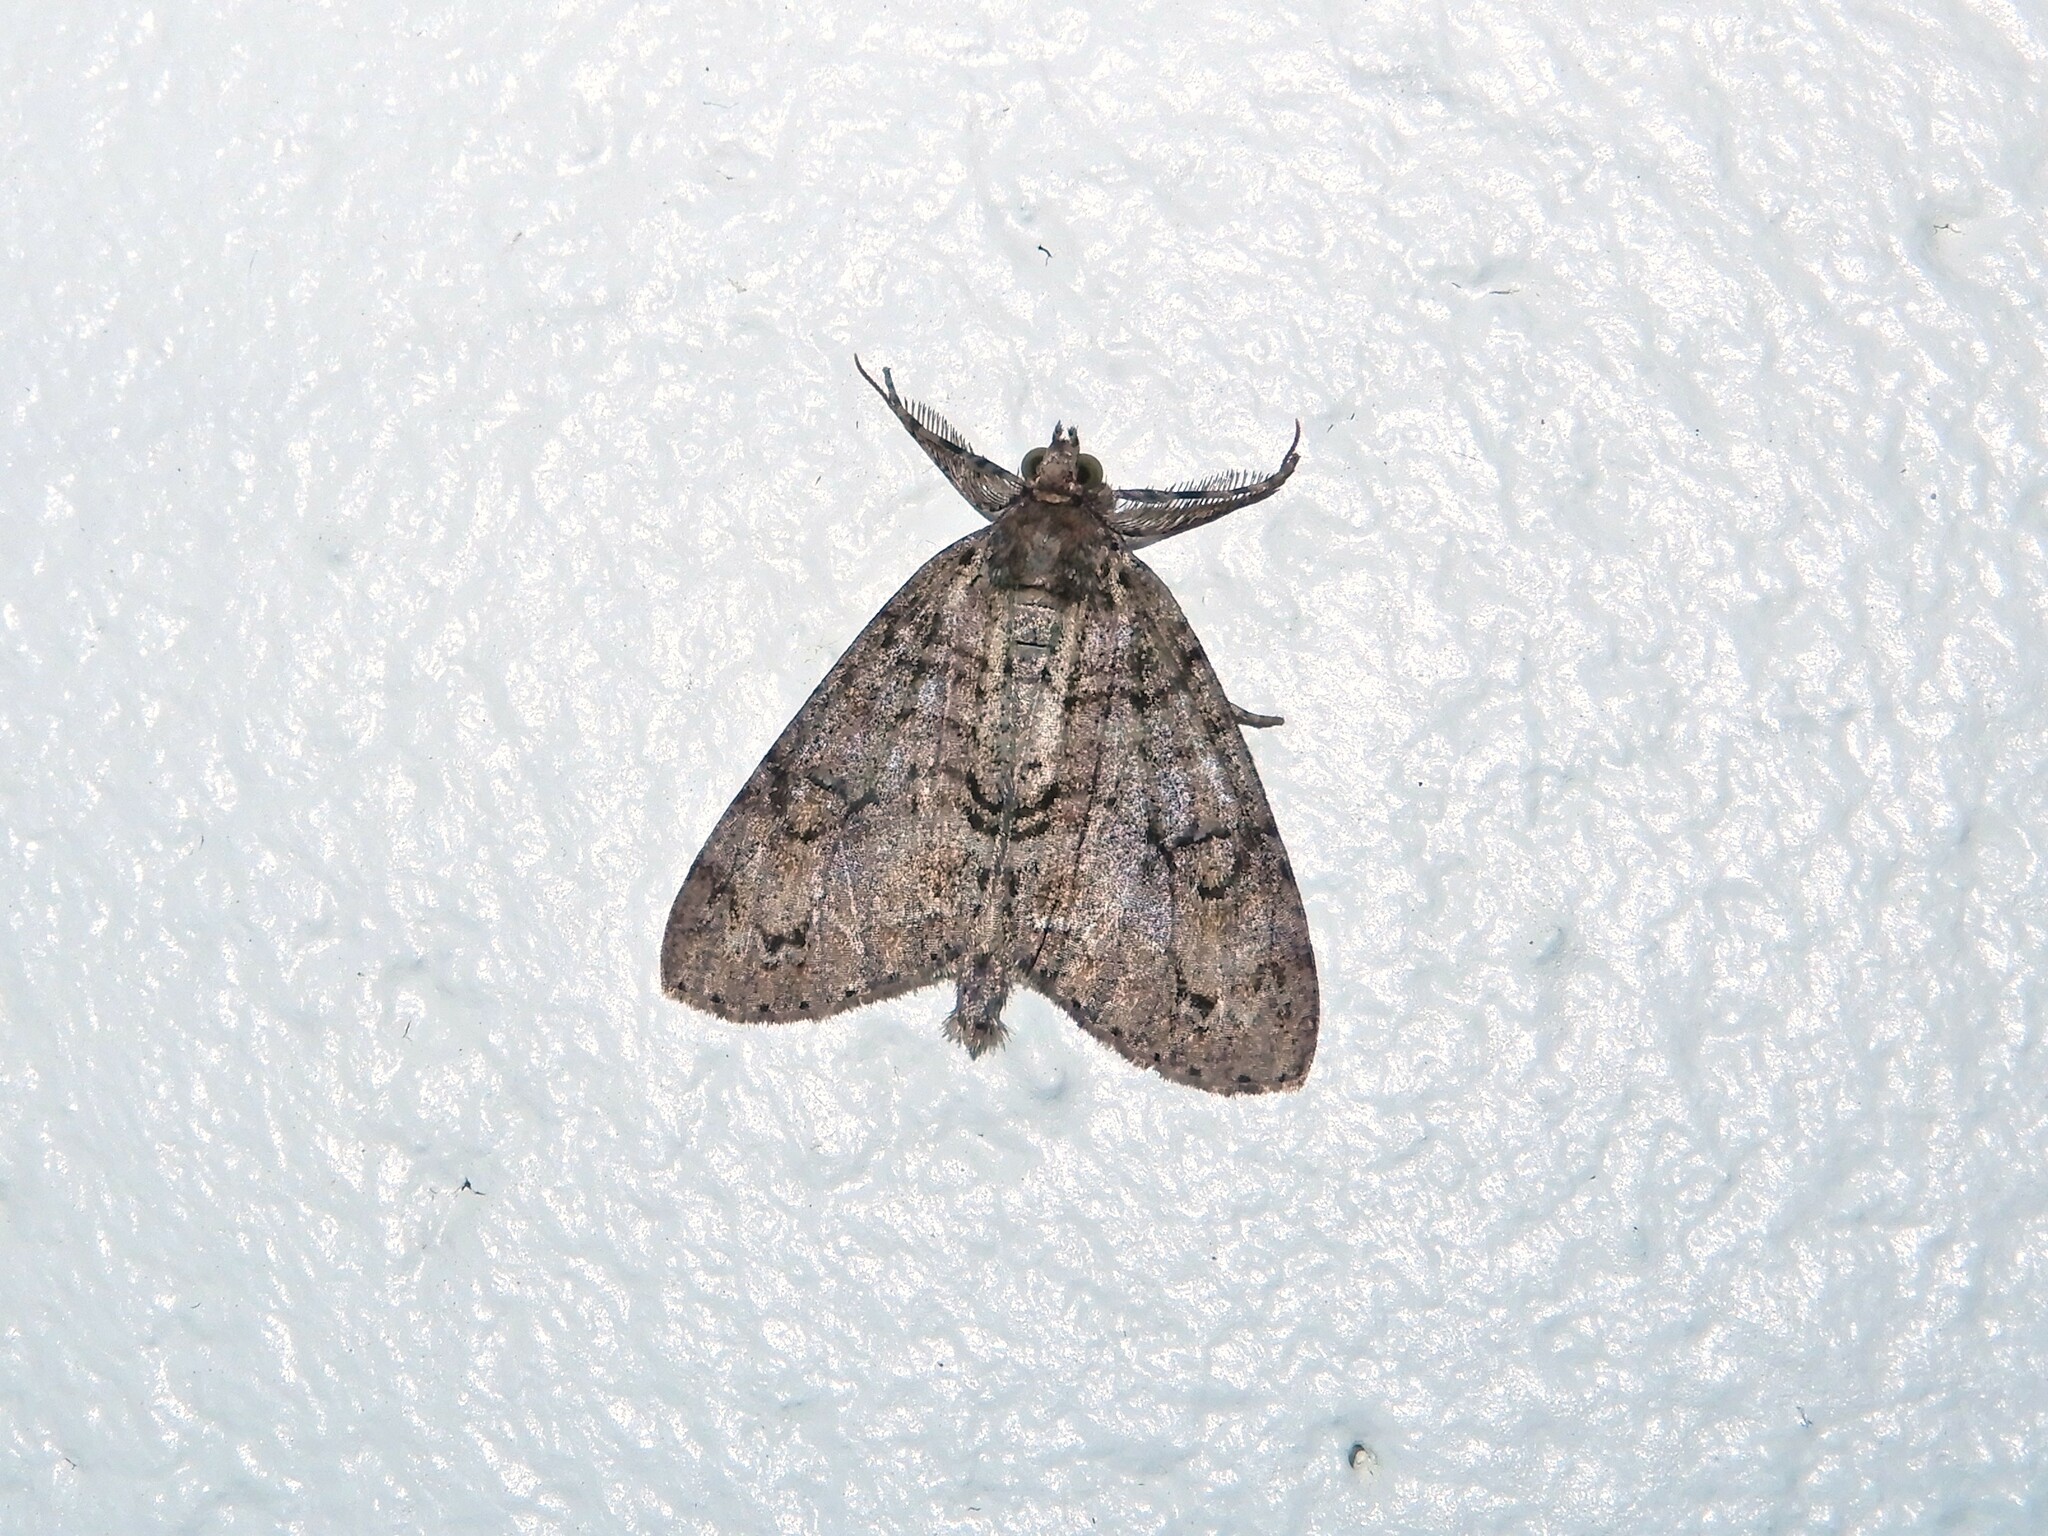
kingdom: Animalia
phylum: Arthropoda
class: Insecta
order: Lepidoptera
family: Geometridae
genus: Pseudocoremia
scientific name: Pseudocoremia suavis
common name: Common forest looper
